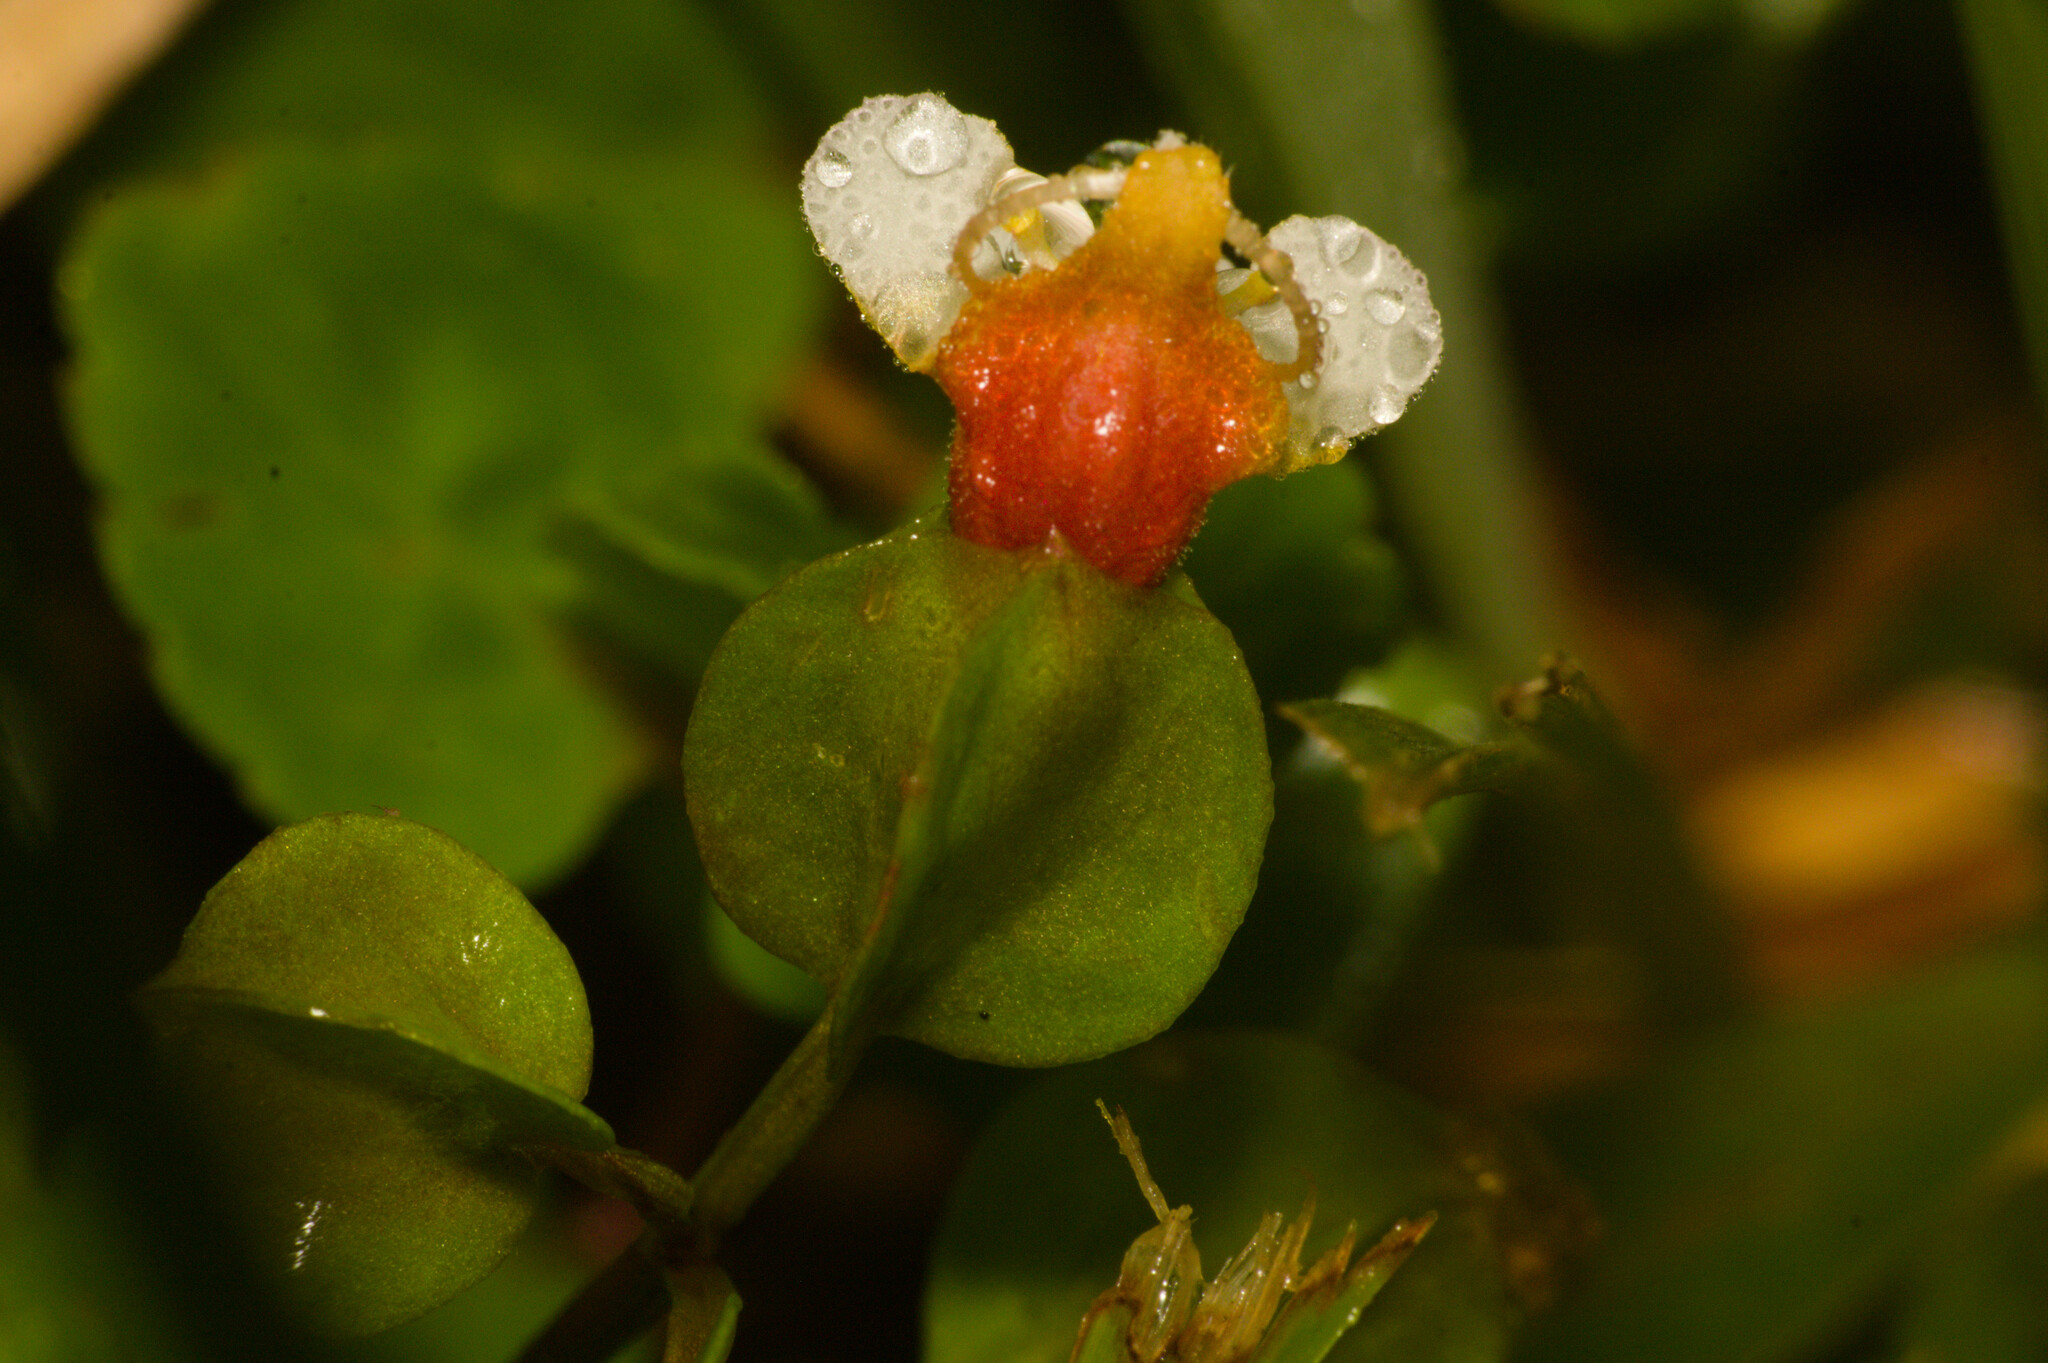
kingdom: Plantae
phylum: Tracheophyta
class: Magnoliopsida
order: Lamiales
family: Linderniaceae
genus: Legazpia
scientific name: Legazpia polygonoides
